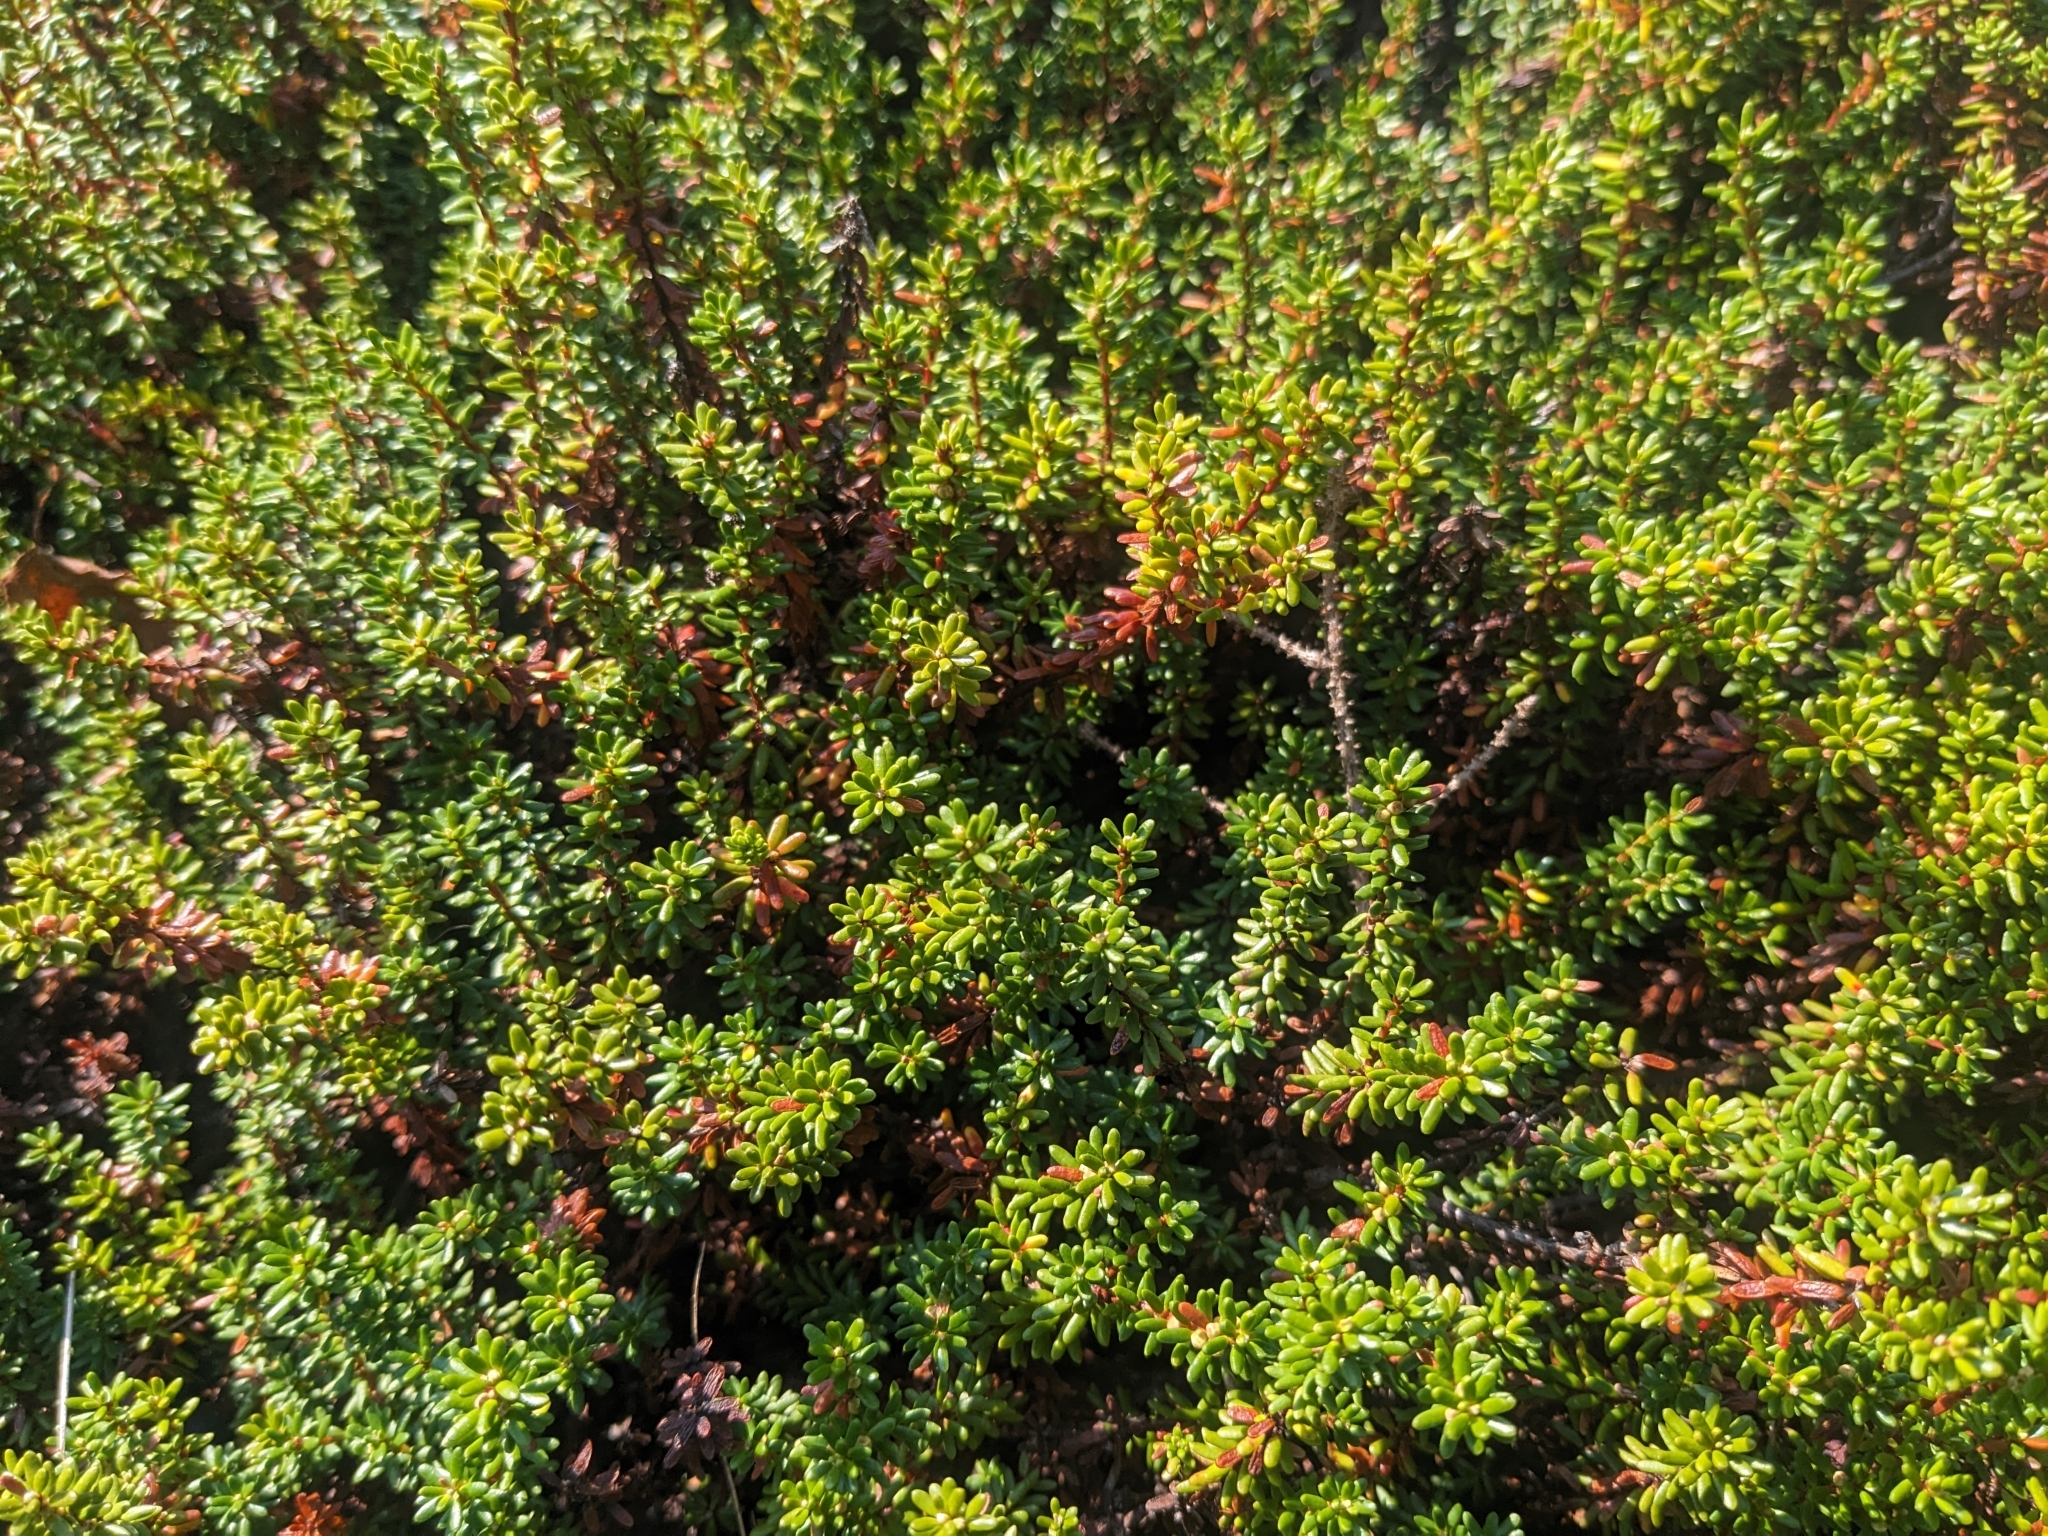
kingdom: Plantae
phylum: Tracheophyta
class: Magnoliopsida
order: Ericales
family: Ericaceae
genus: Empetrum
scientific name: Empetrum nigrum
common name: Black crowberry
